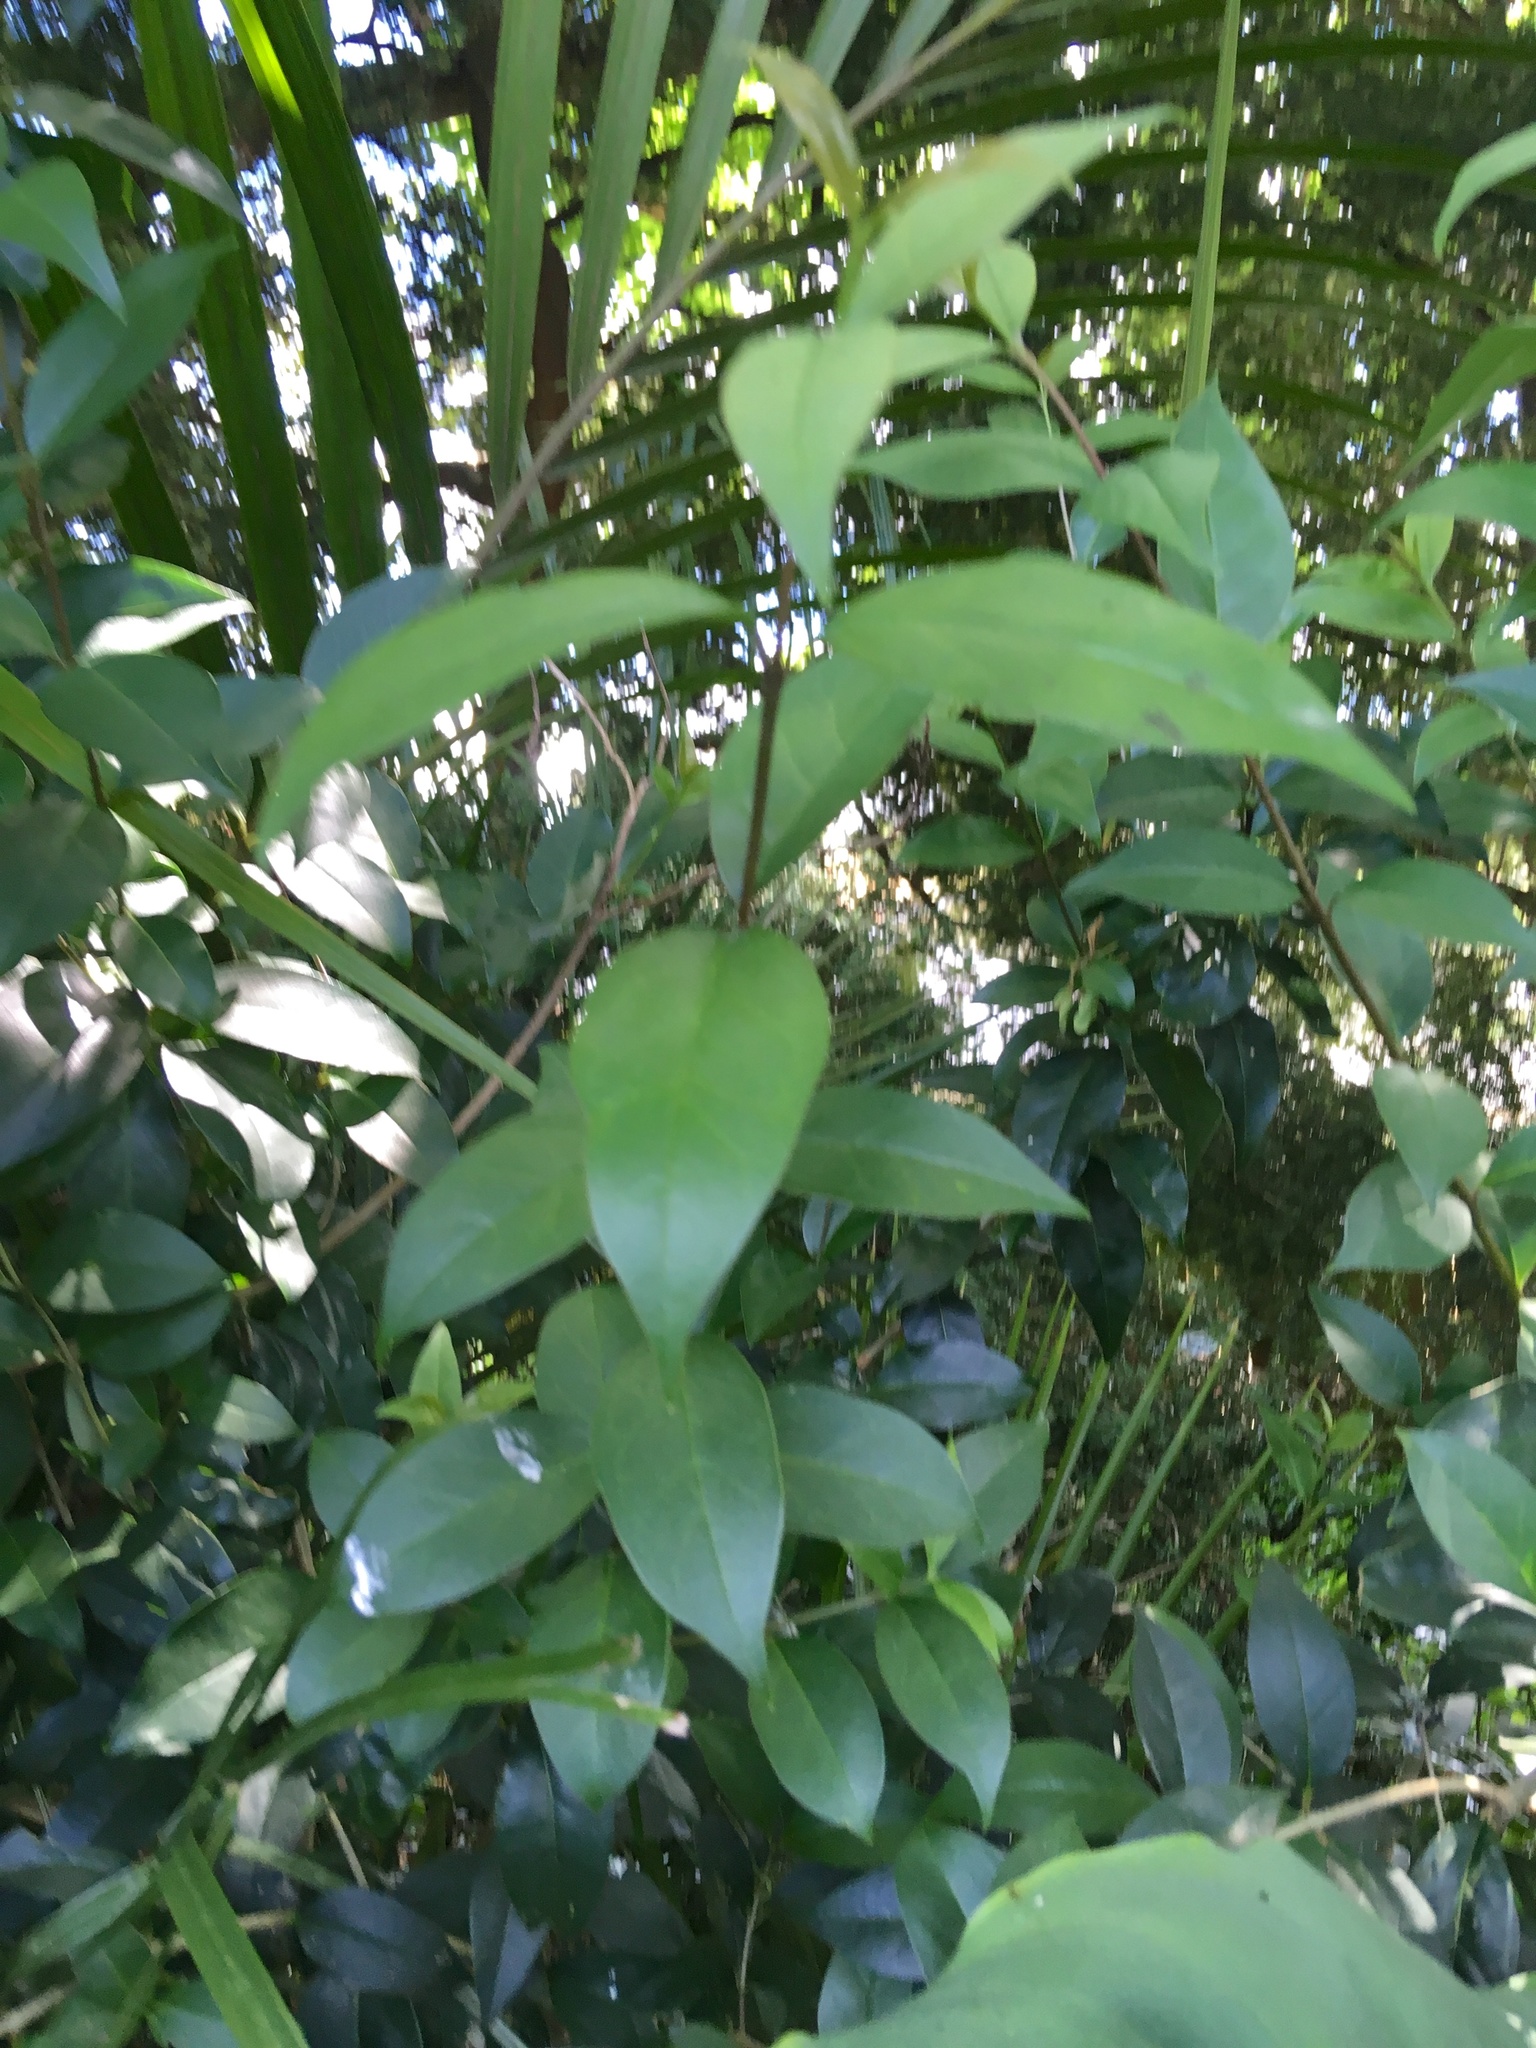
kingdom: Plantae
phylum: Tracheophyta
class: Magnoliopsida
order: Lamiales
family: Oleaceae
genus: Ligustrum
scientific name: Ligustrum lucidum
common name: Glossy privet
